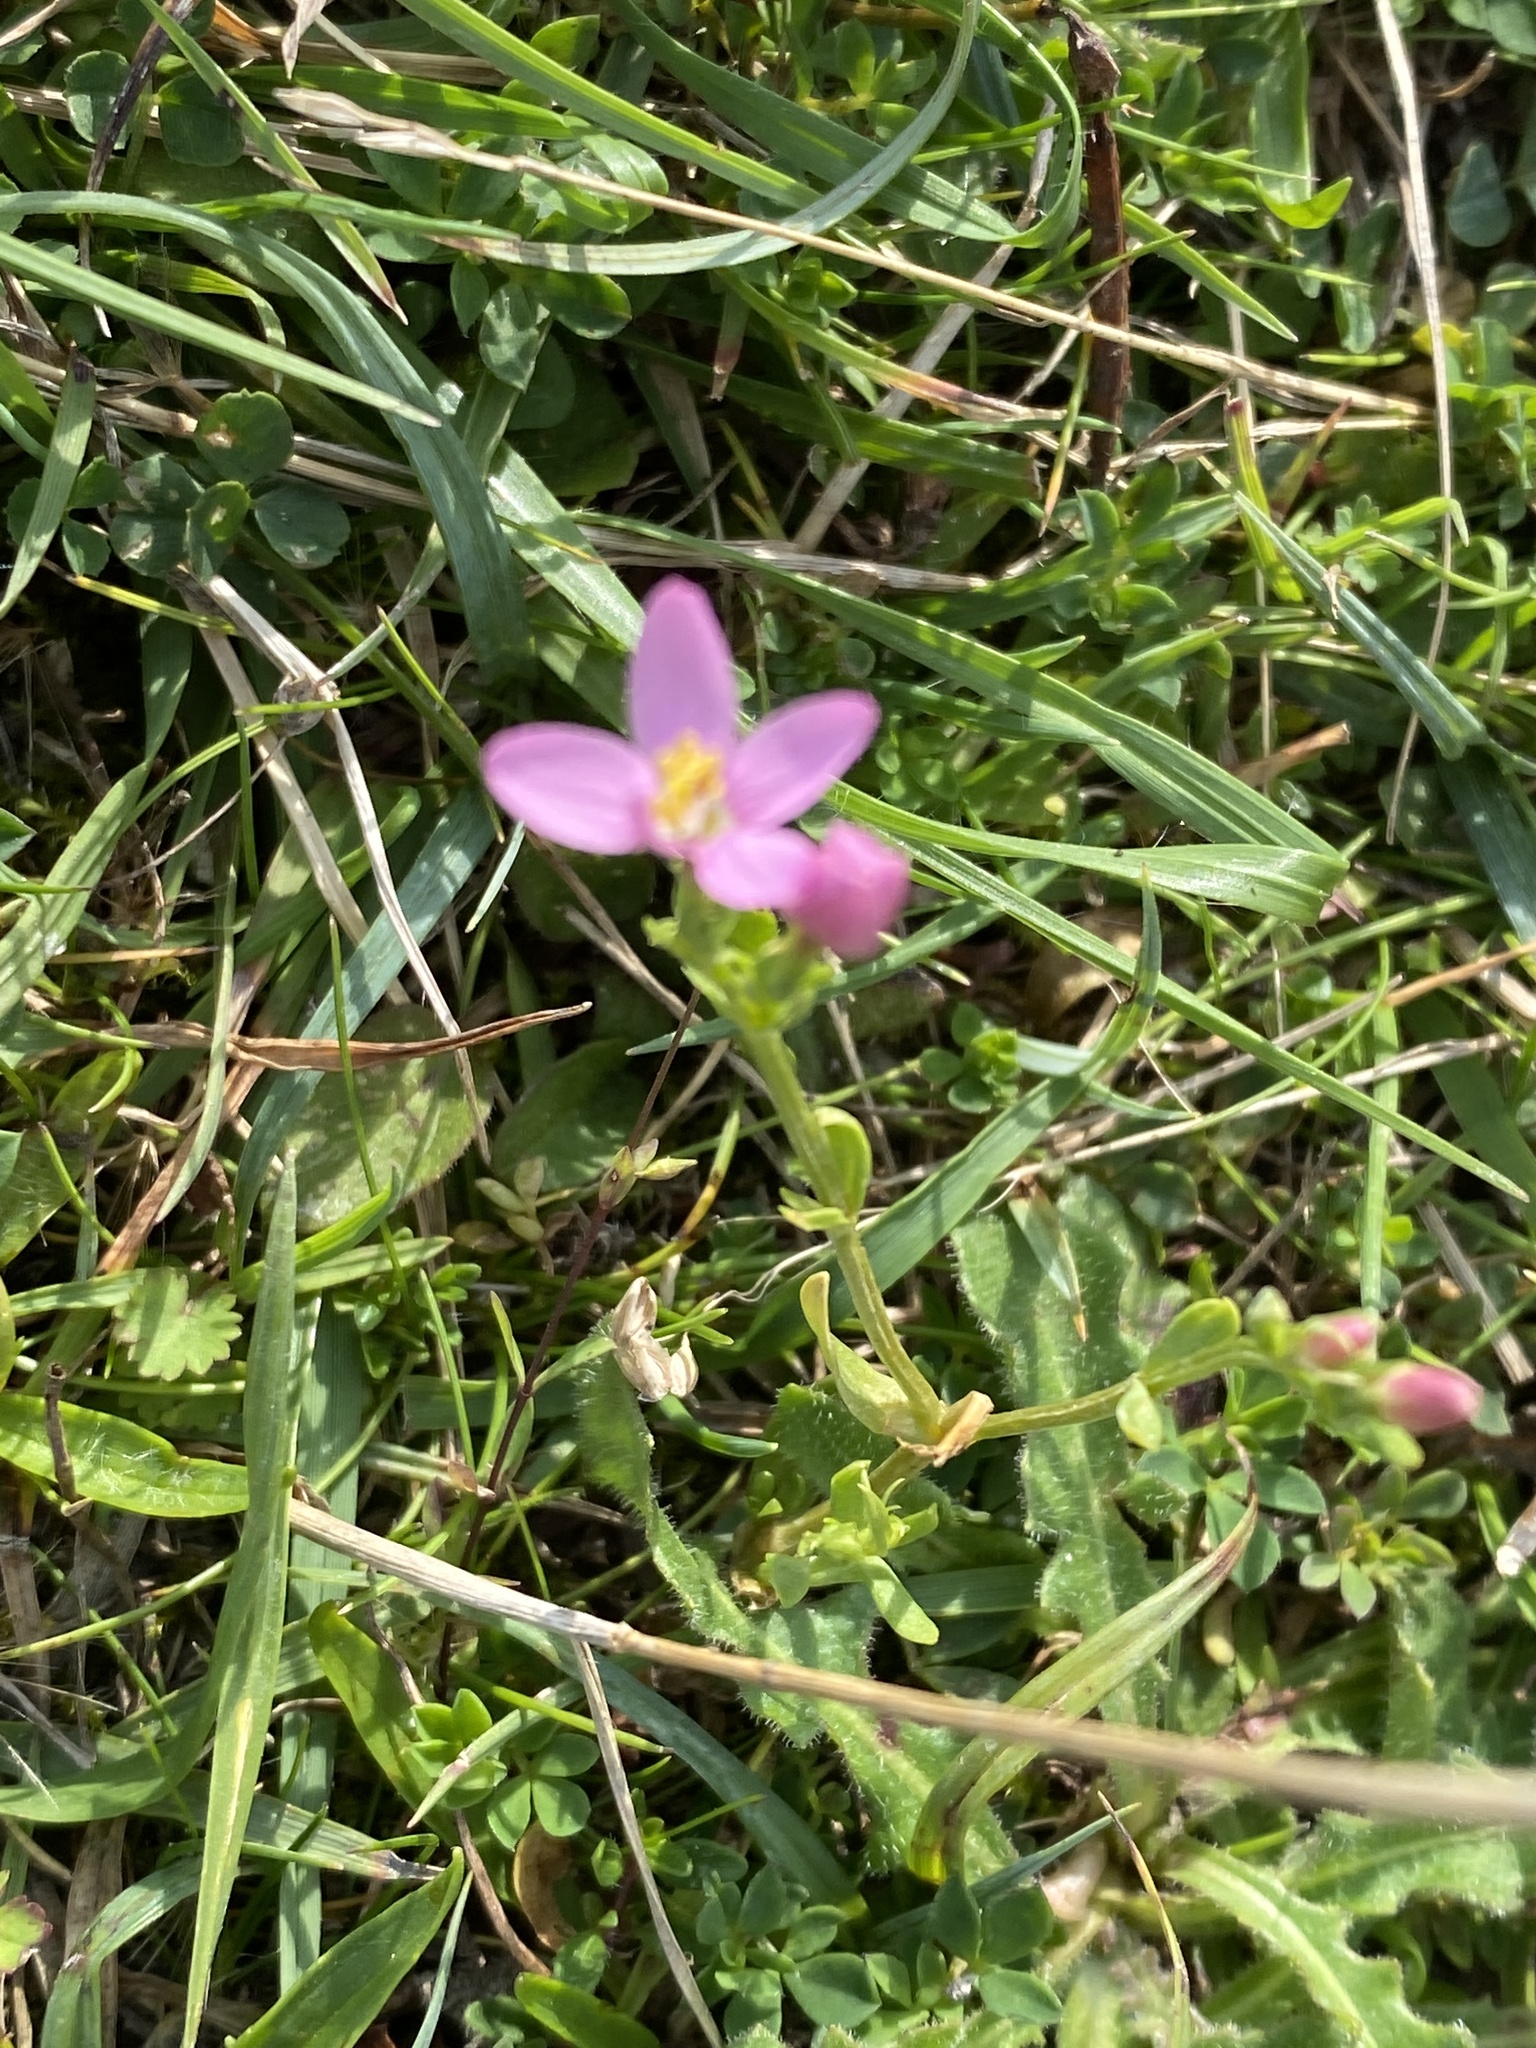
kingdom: Plantae
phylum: Tracheophyta
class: Magnoliopsida
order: Gentianales
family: Gentianaceae
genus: Centaurium
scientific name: Centaurium erythraea
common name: Common centaury
